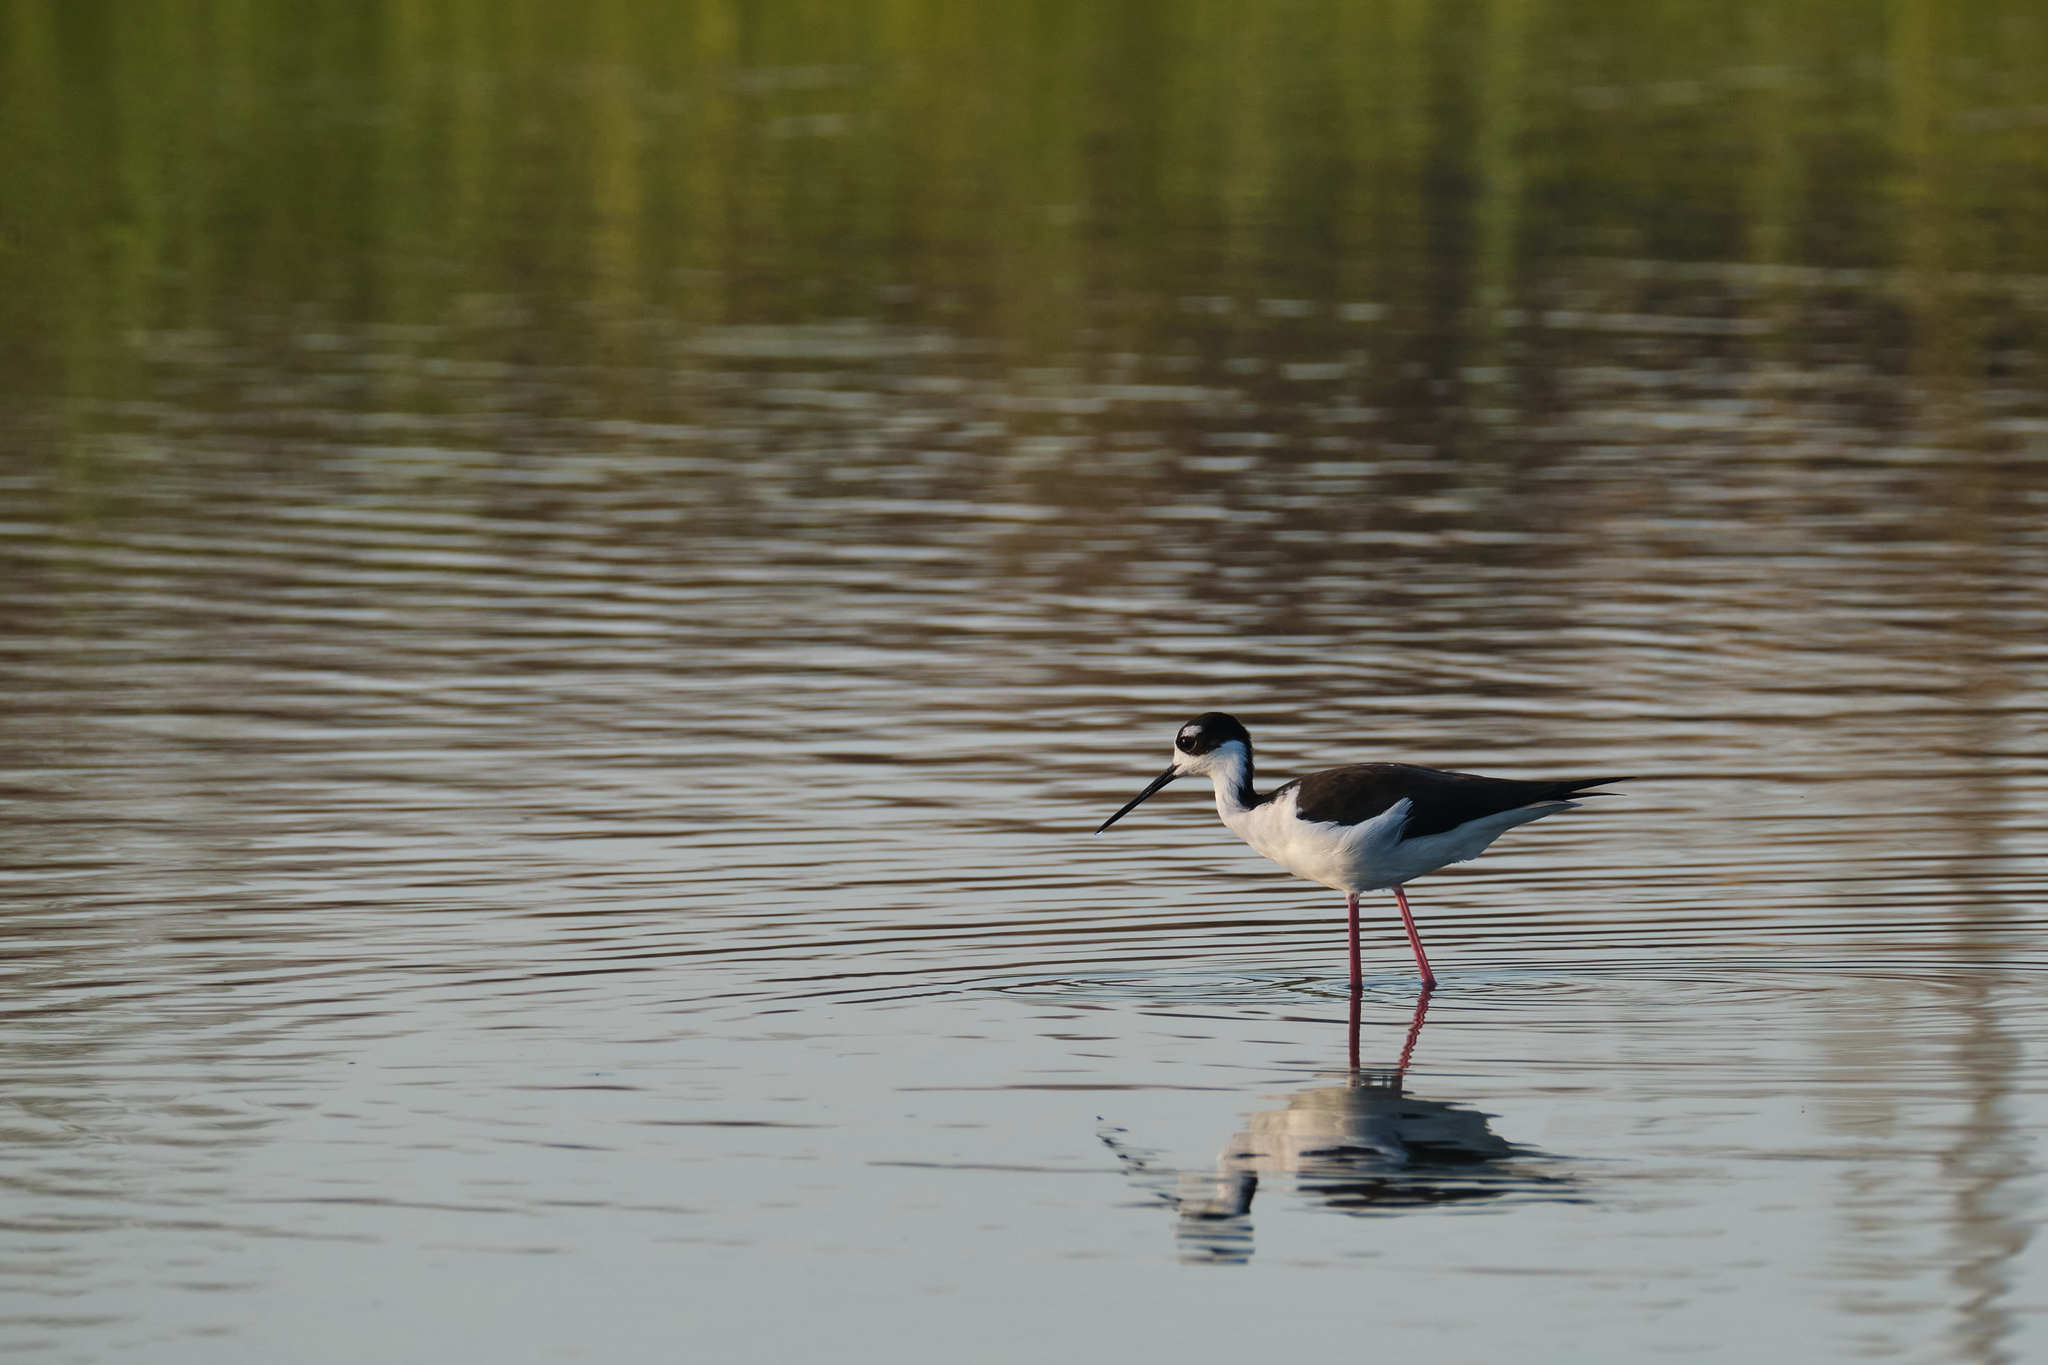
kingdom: Animalia
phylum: Chordata
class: Aves
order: Charadriiformes
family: Recurvirostridae
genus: Himantopus
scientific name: Himantopus mexicanus
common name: Black-necked stilt
